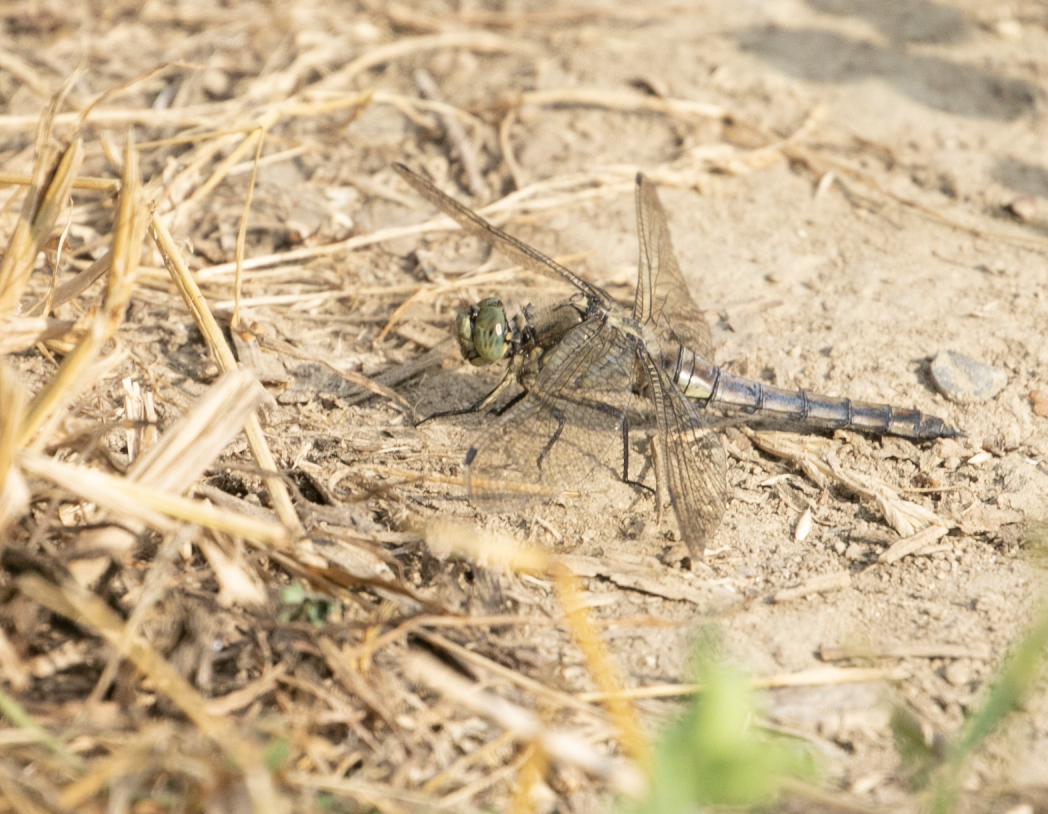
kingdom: Animalia
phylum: Arthropoda
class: Insecta
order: Odonata
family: Libellulidae
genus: Orthetrum
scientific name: Orthetrum cancellatum
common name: Black-tailed skimmer
